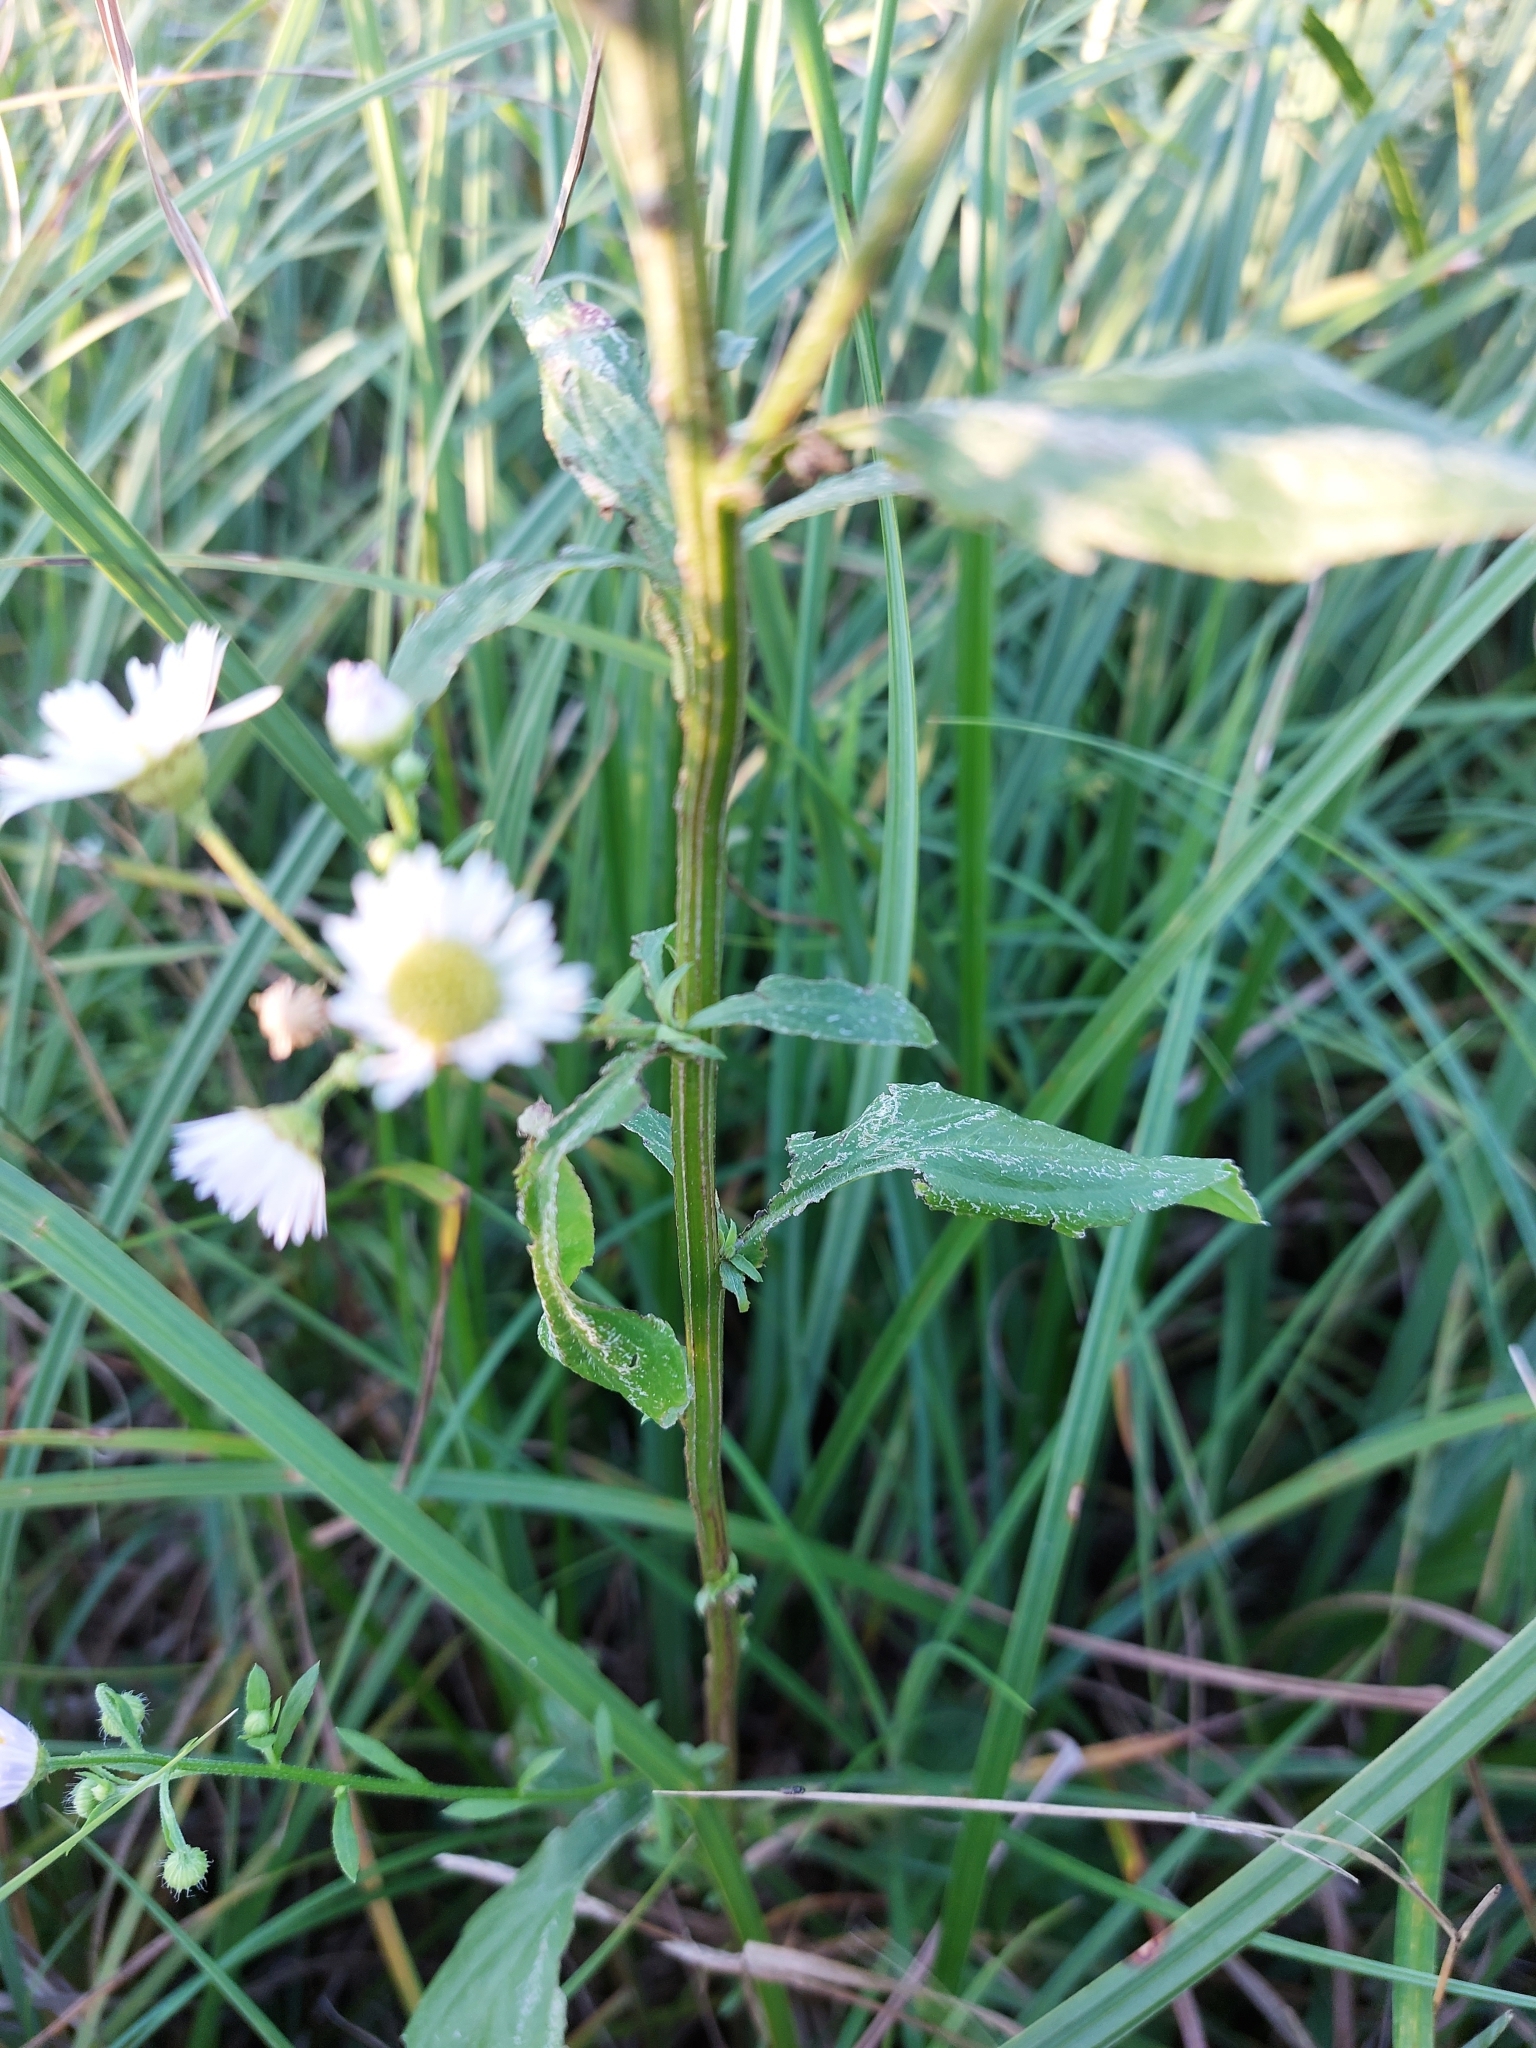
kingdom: Plantae
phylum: Tracheophyta
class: Magnoliopsida
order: Asterales
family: Asteraceae
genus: Erigeron
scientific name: Erigeron annuus
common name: Tall fleabane
